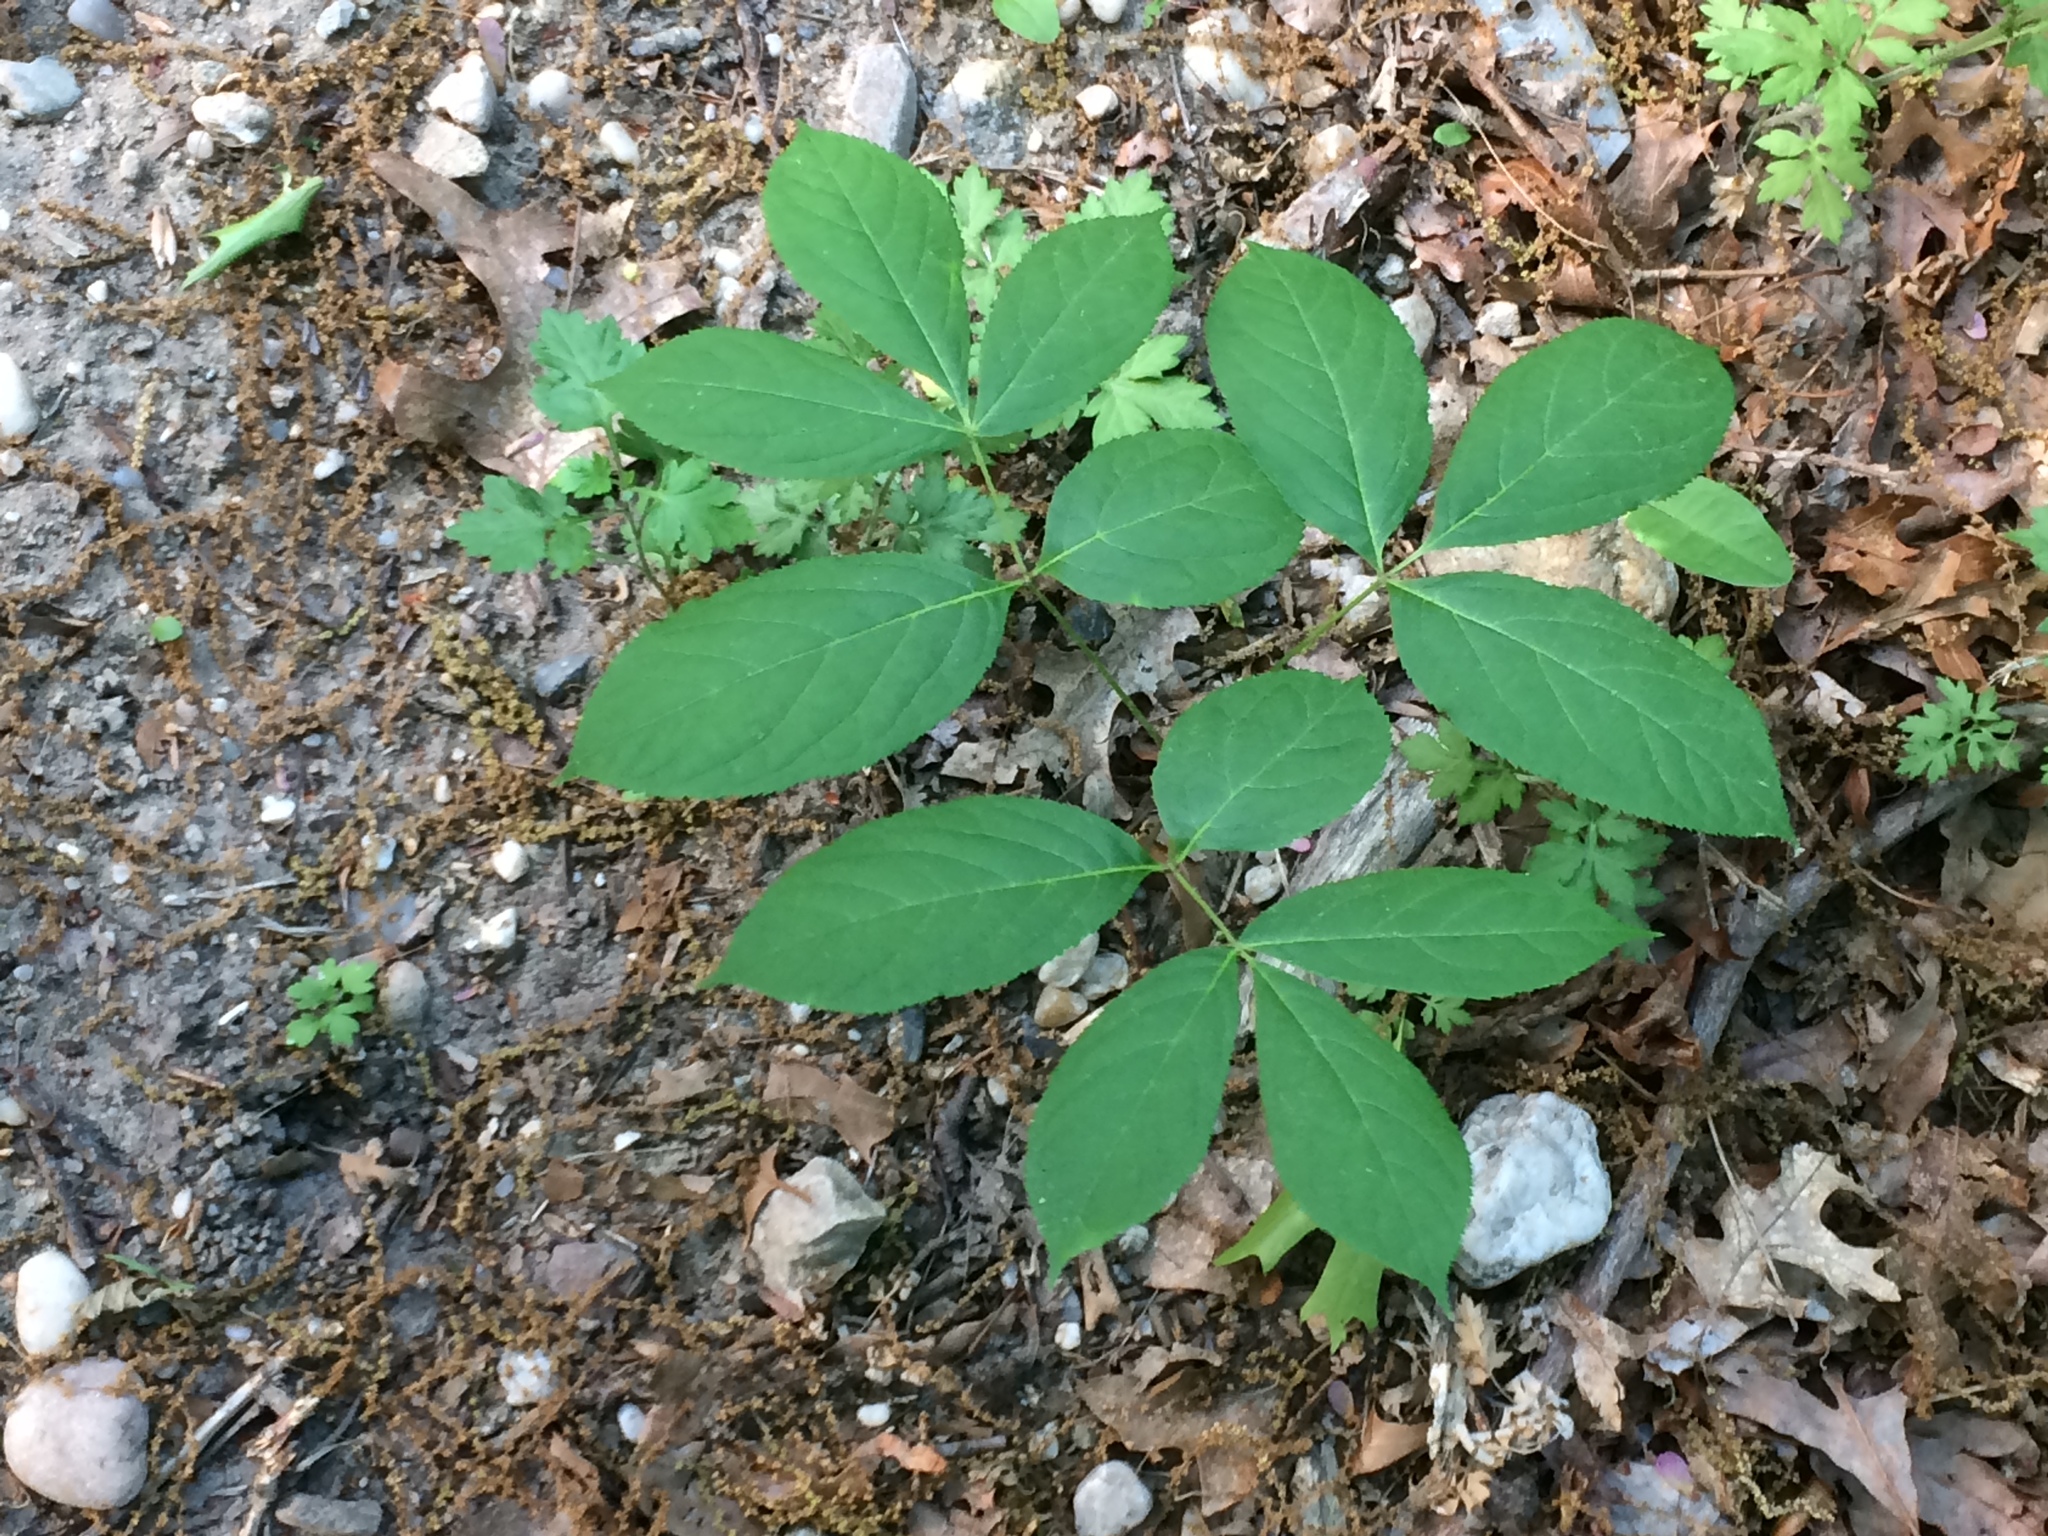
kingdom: Plantae
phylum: Tracheophyta
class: Magnoliopsida
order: Apiales
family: Araliaceae
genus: Aralia
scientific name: Aralia nudicaulis
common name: Wild sarsaparilla
